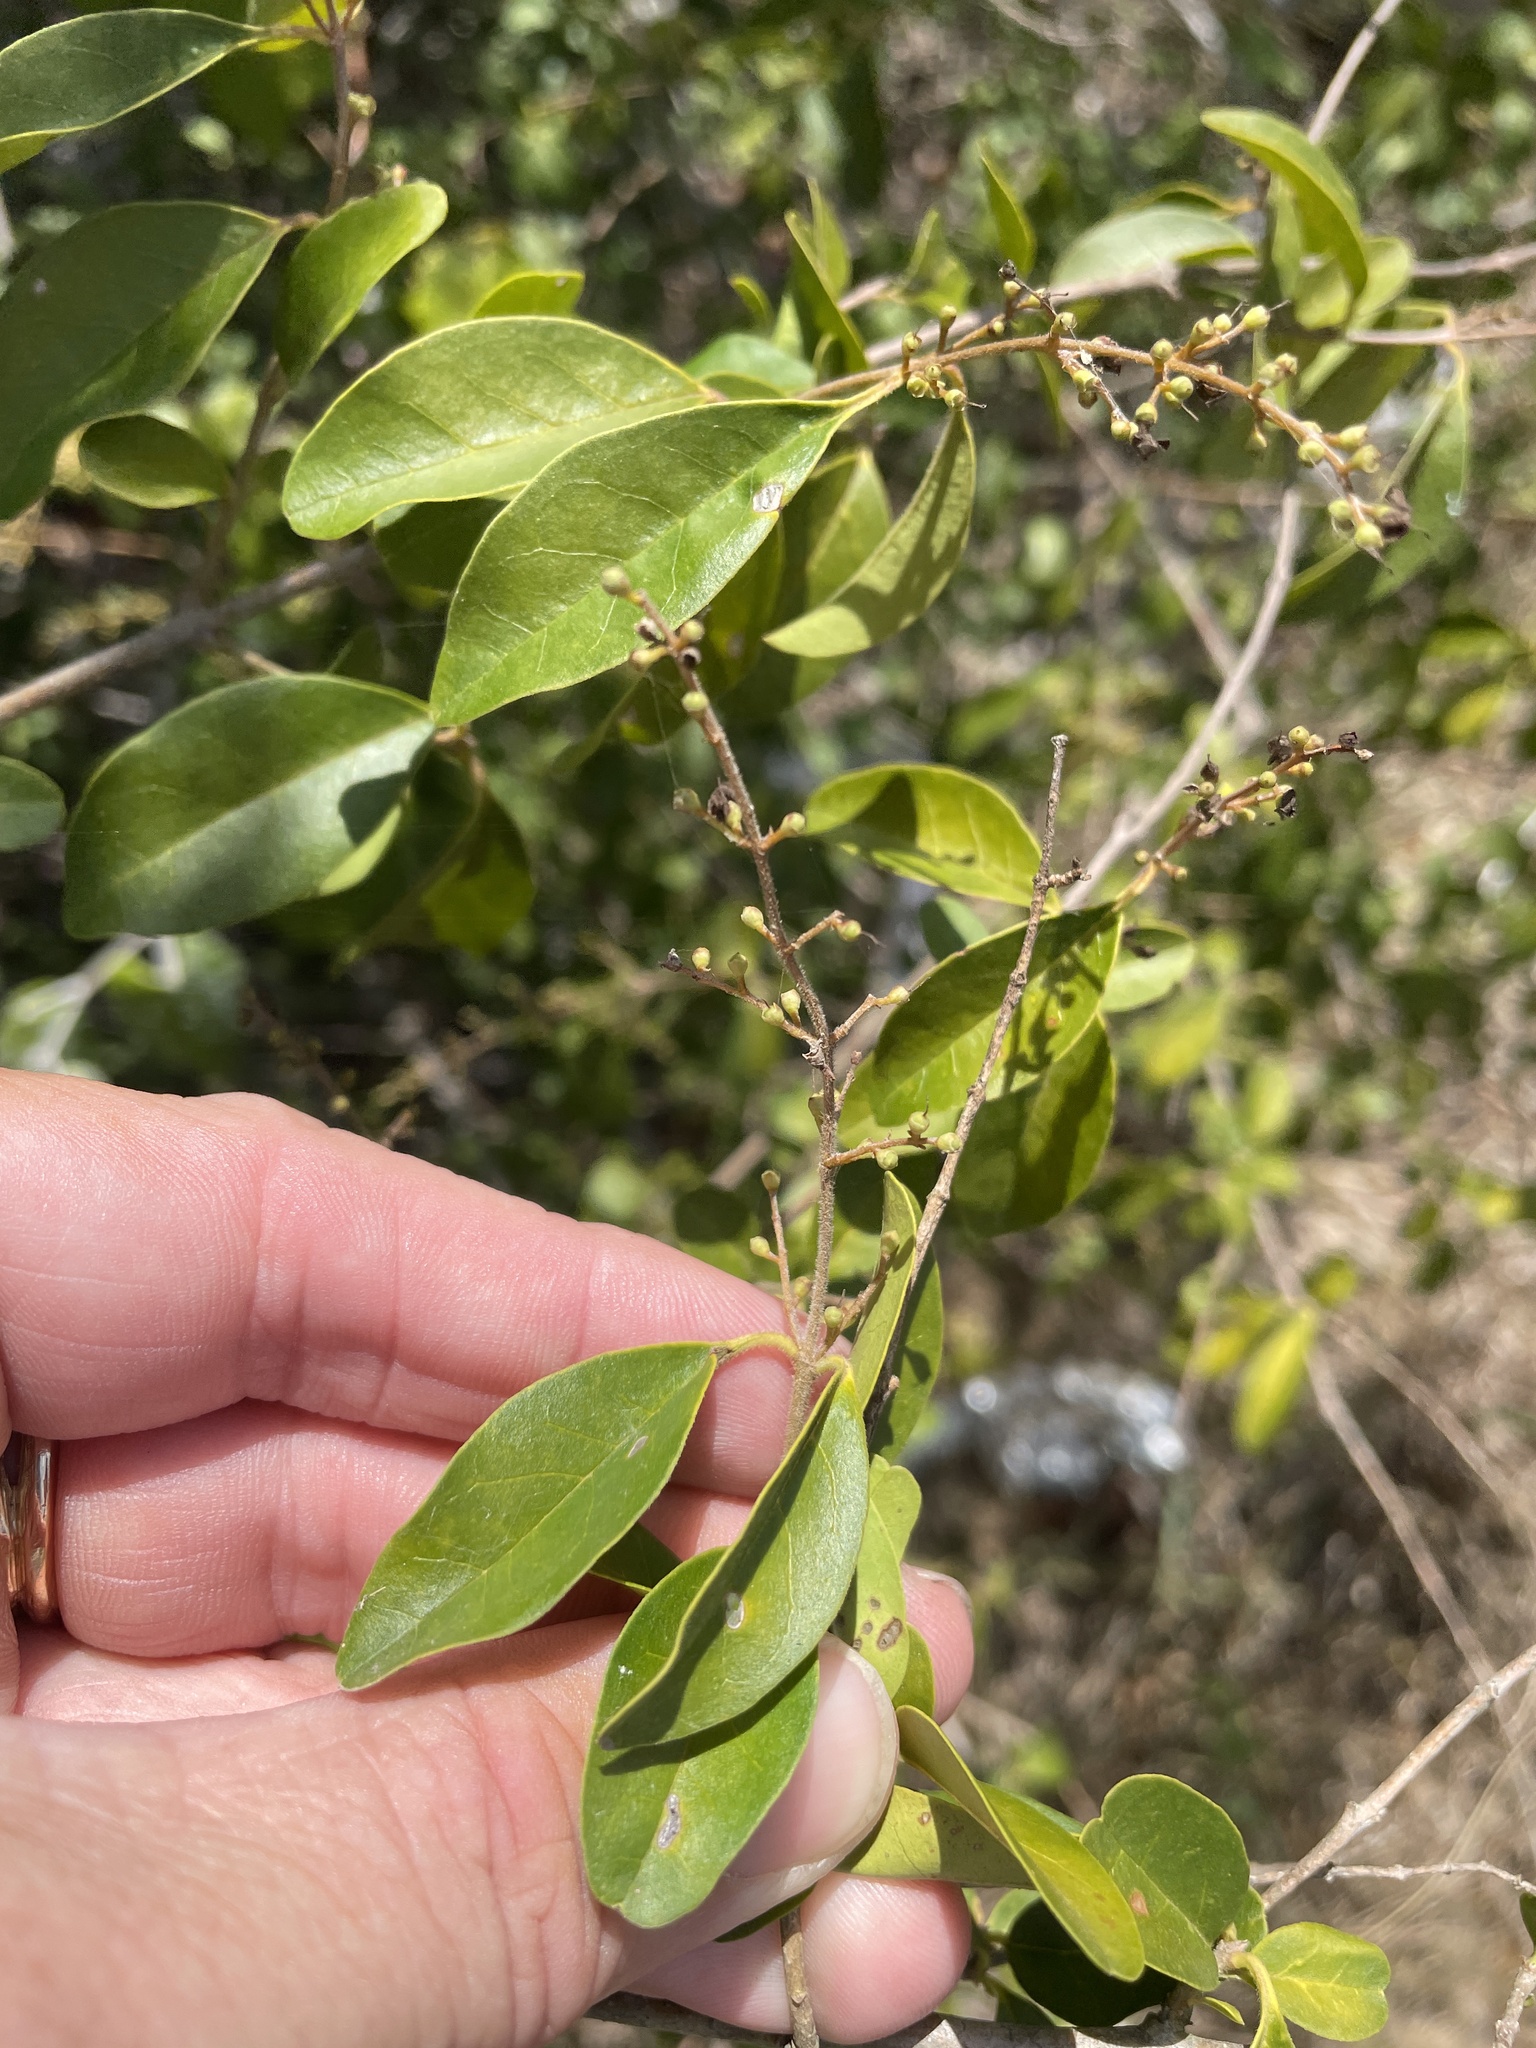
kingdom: Plantae
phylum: Tracheophyta
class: Magnoliopsida
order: Lamiales
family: Oleaceae
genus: Ligustrum
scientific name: Ligustrum sinense
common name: Chinese privet
